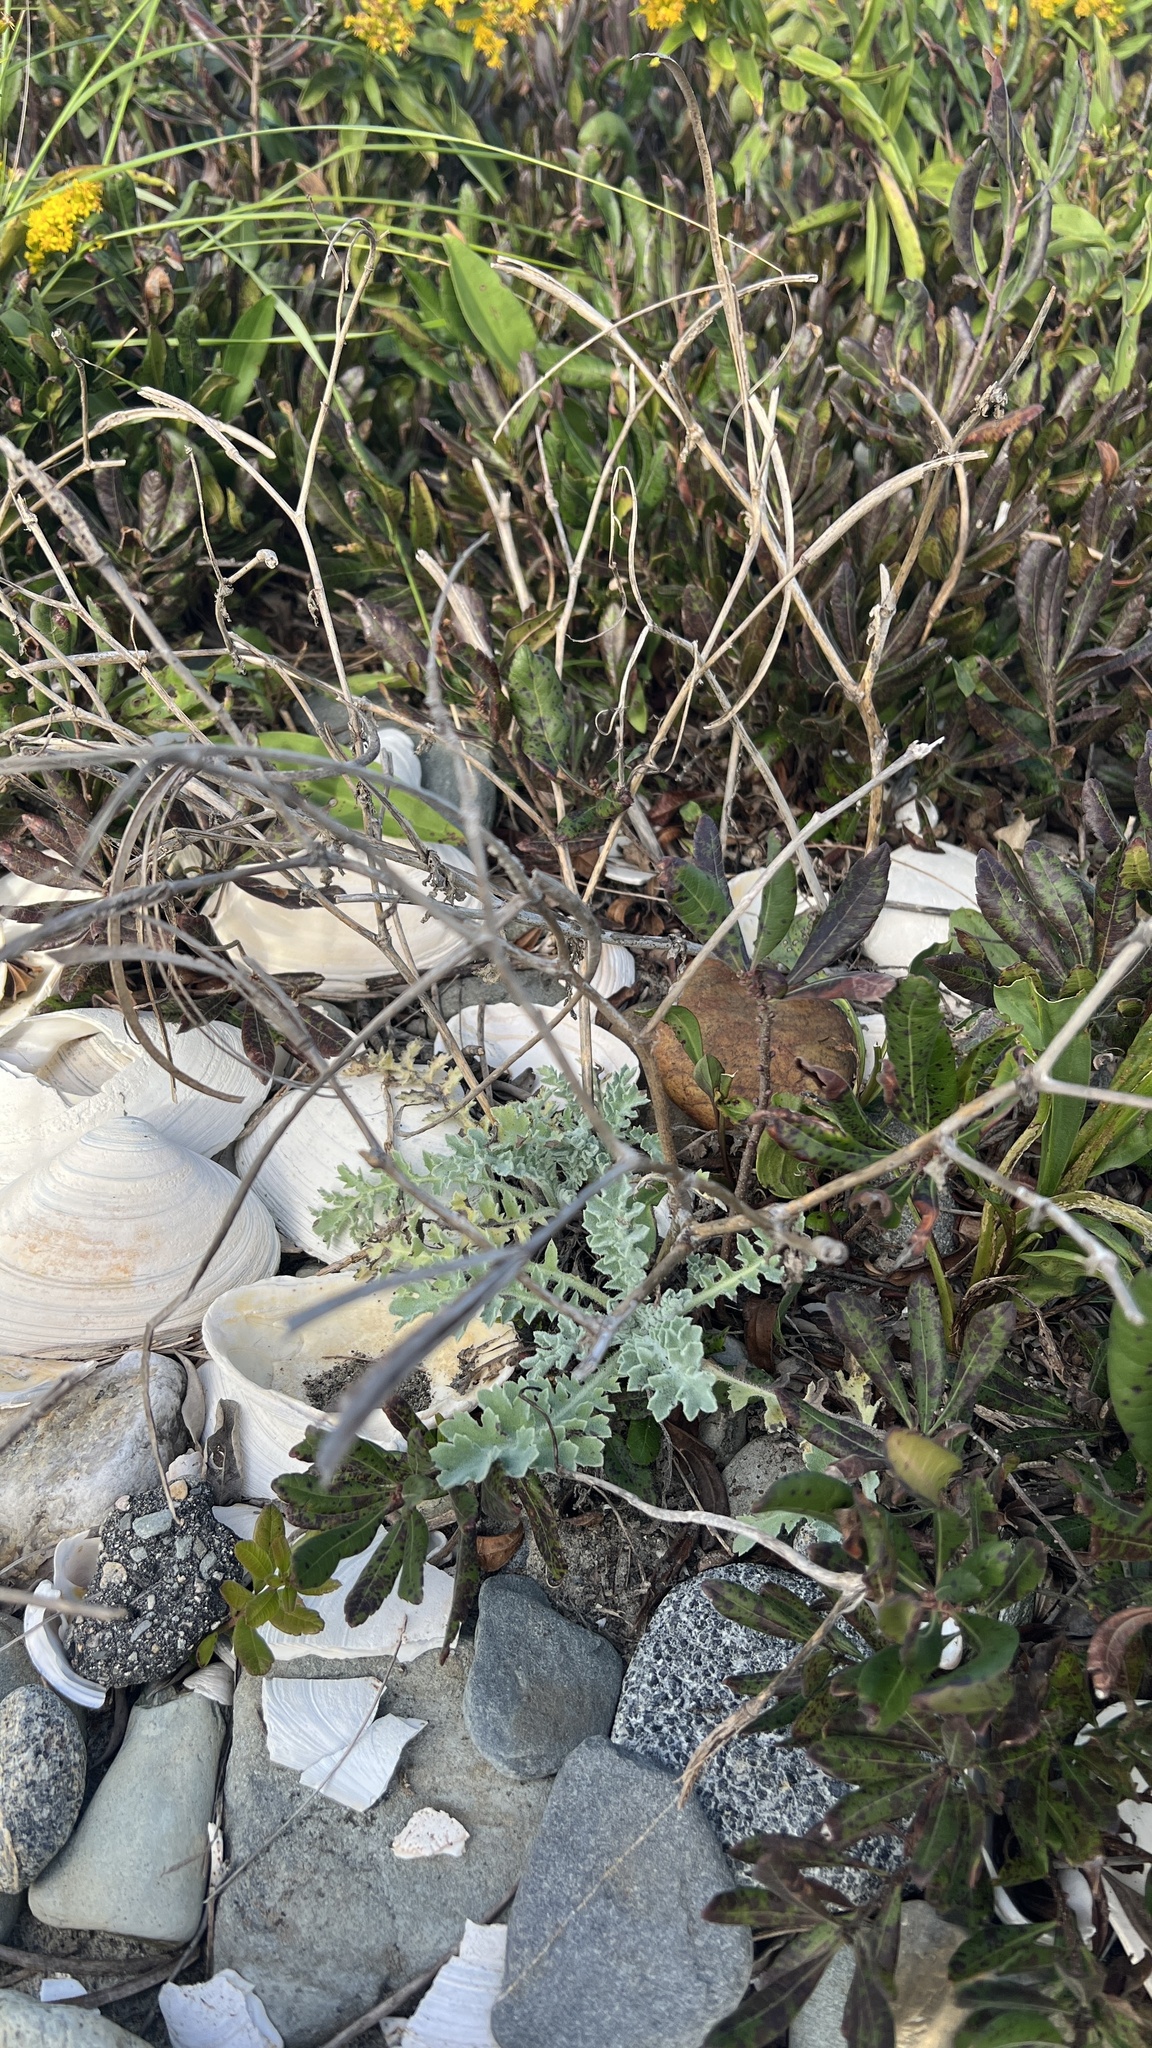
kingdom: Plantae
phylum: Tracheophyta
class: Magnoliopsida
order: Asterales
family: Asteraceae
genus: Artemisia
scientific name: Artemisia stelleriana
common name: Beach wormwood
